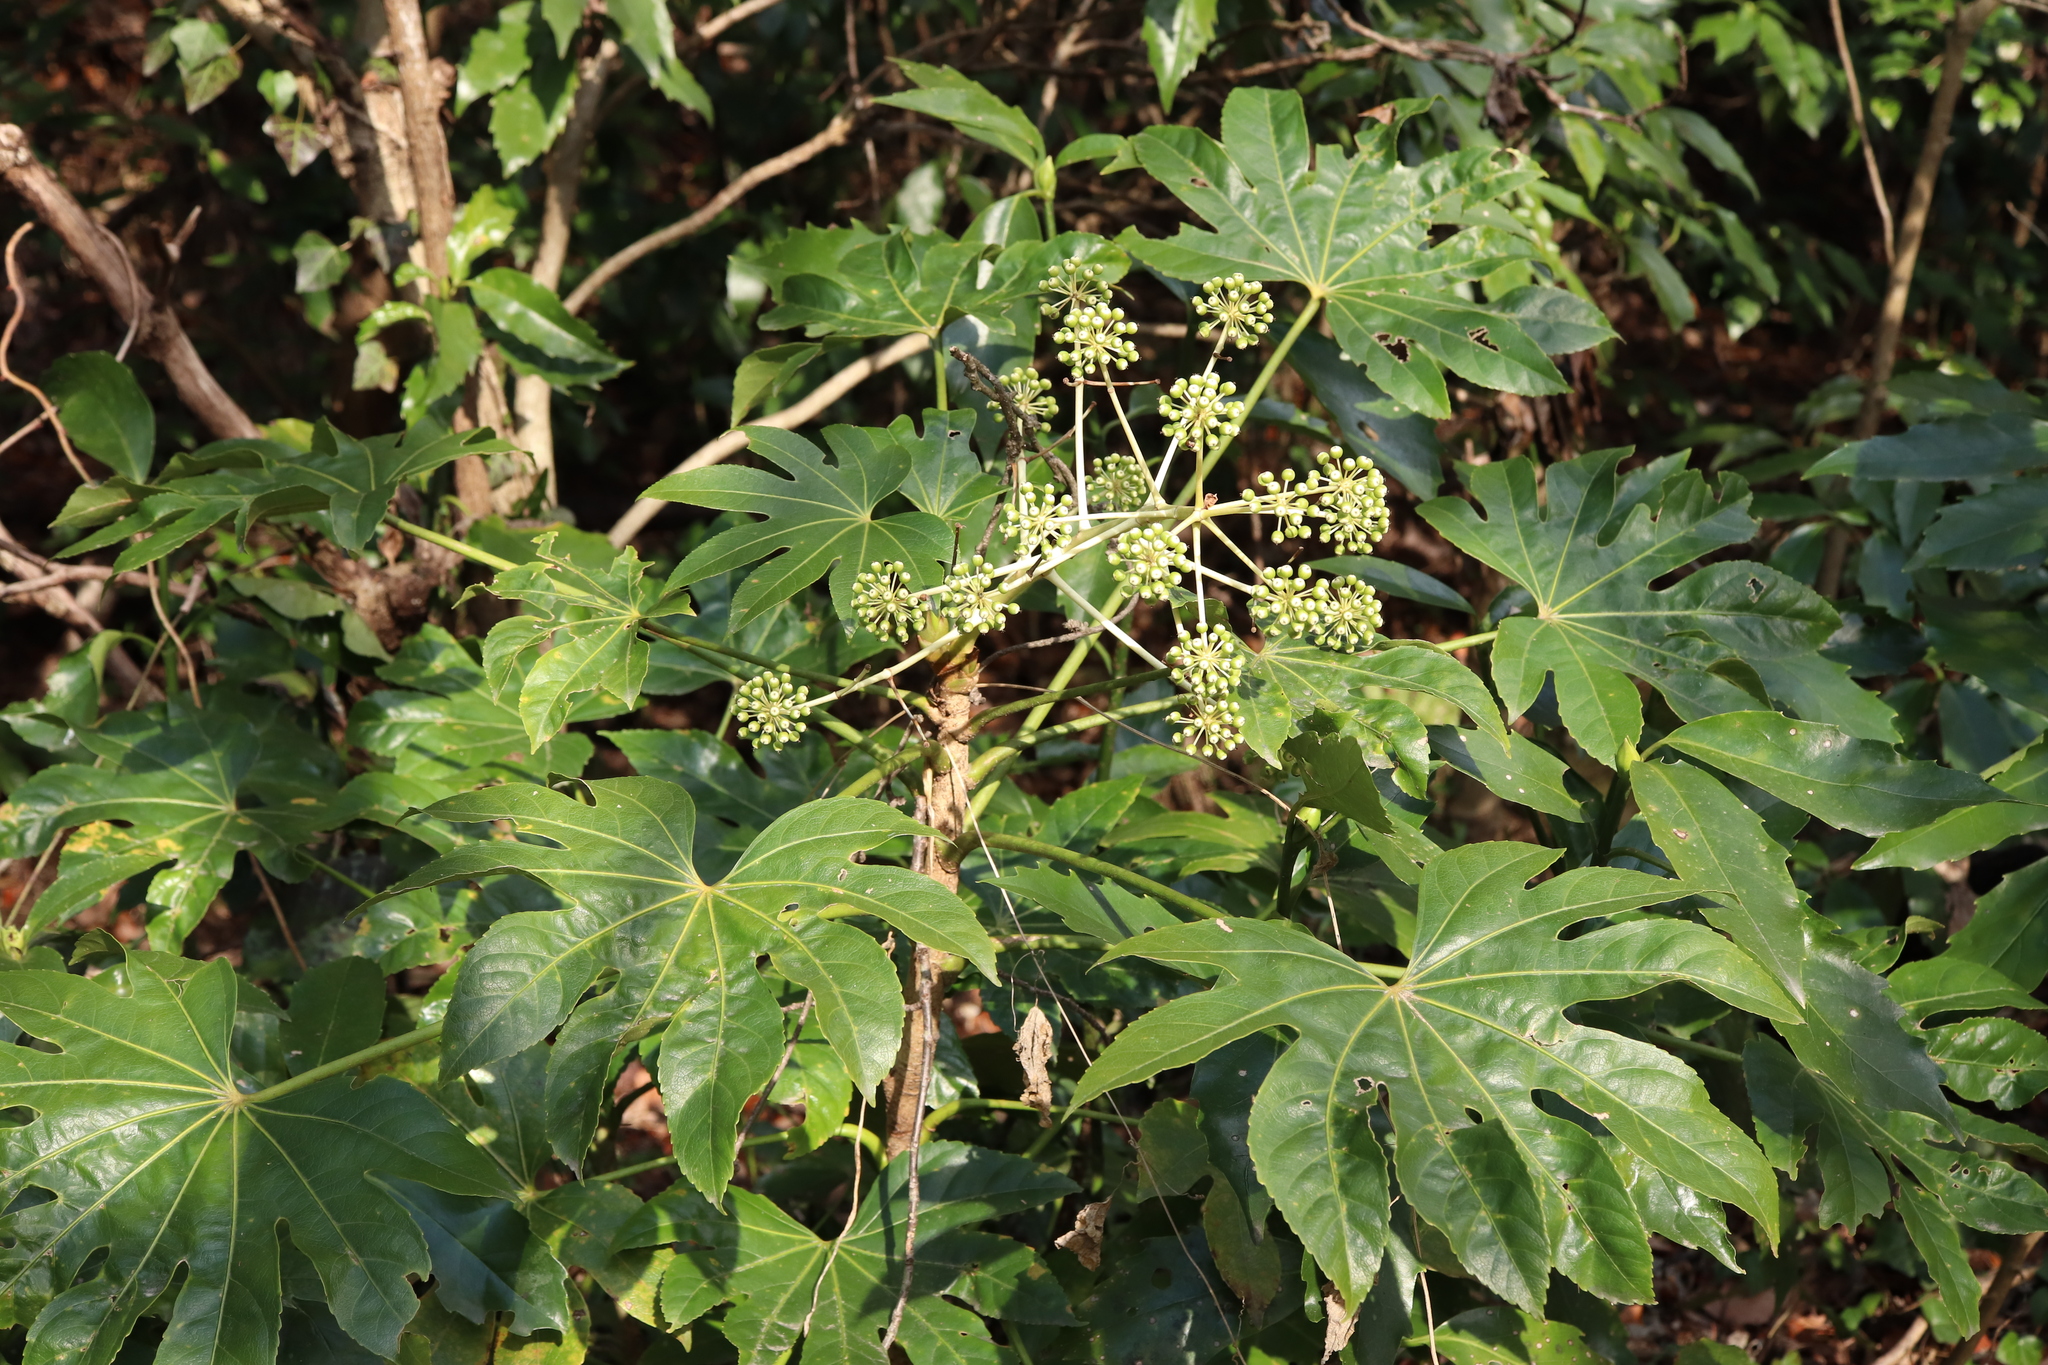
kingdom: Plantae
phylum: Tracheophyta
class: Magnoliopsida
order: Apiales
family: Araliaceae
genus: Fatsia
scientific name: Fatsia japonica
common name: Fatsia
